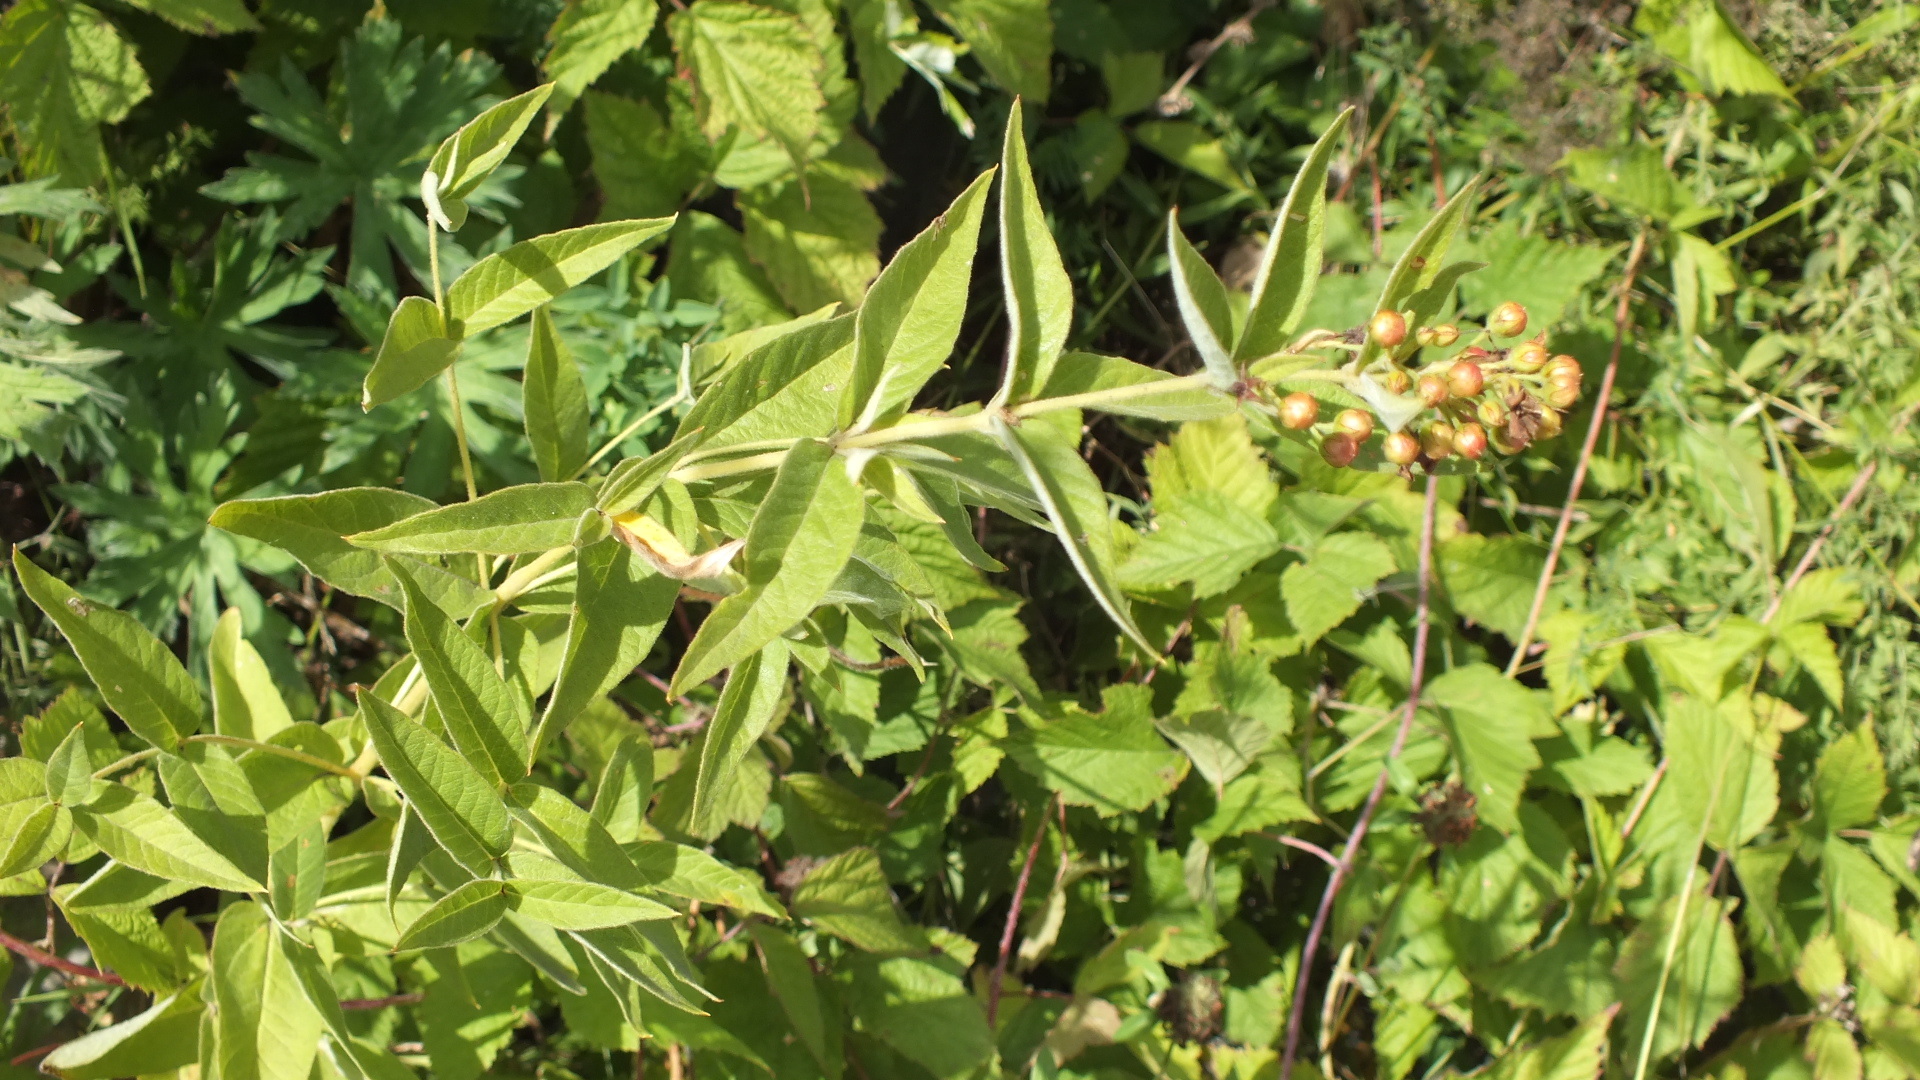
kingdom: Plantae
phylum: Tracheophyta
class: Magnoliopsida
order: Ericales
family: Primulaceae
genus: Lysimachia
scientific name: Lysimachia vulgaris
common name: Yellow loosestrife
